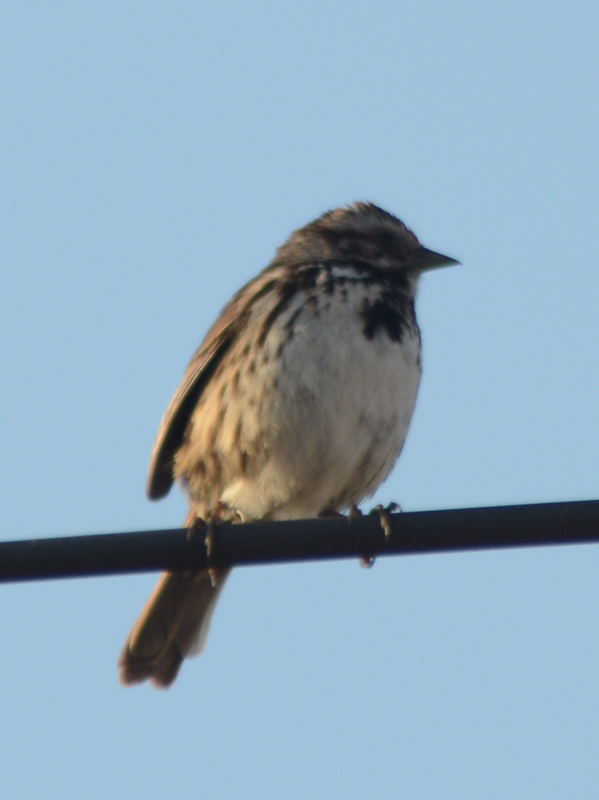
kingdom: Animalia
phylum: Chordata
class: Aves
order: Passeriformes
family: Passerellidae
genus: Melospiza
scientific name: Melospiza melodia
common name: Song sparrow
